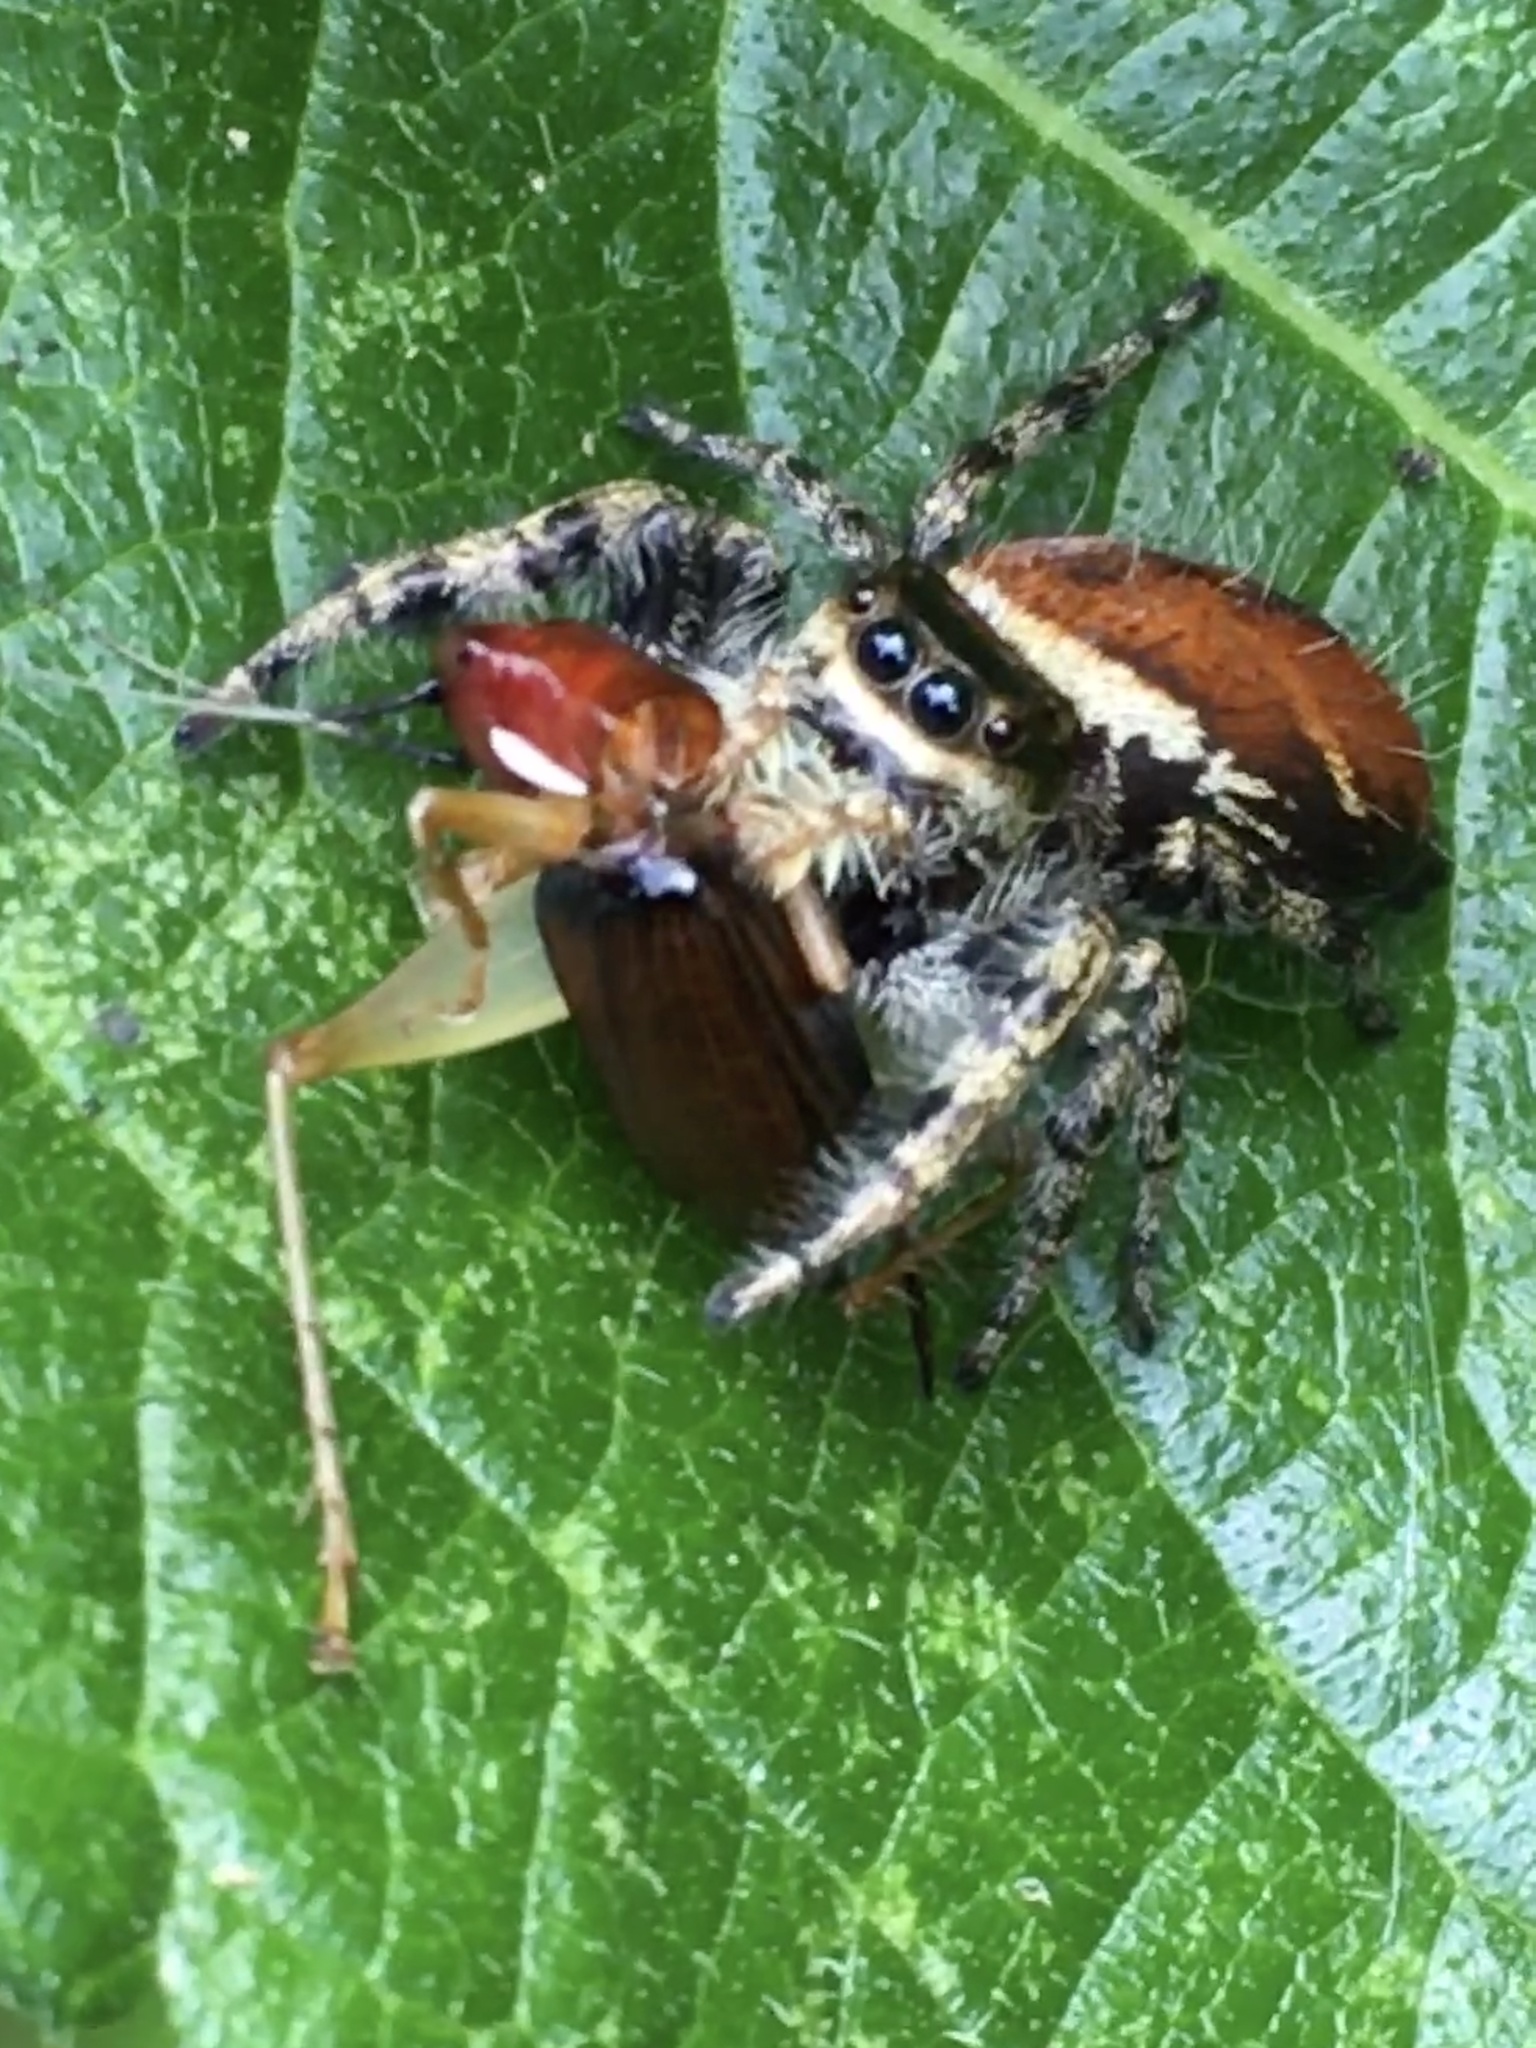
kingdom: Animalia
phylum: Arthropoda
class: Arachnida
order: Araneae
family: Salticidae
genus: Phidippus
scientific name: Phidippus clarus
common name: Brilliant jumping spider
